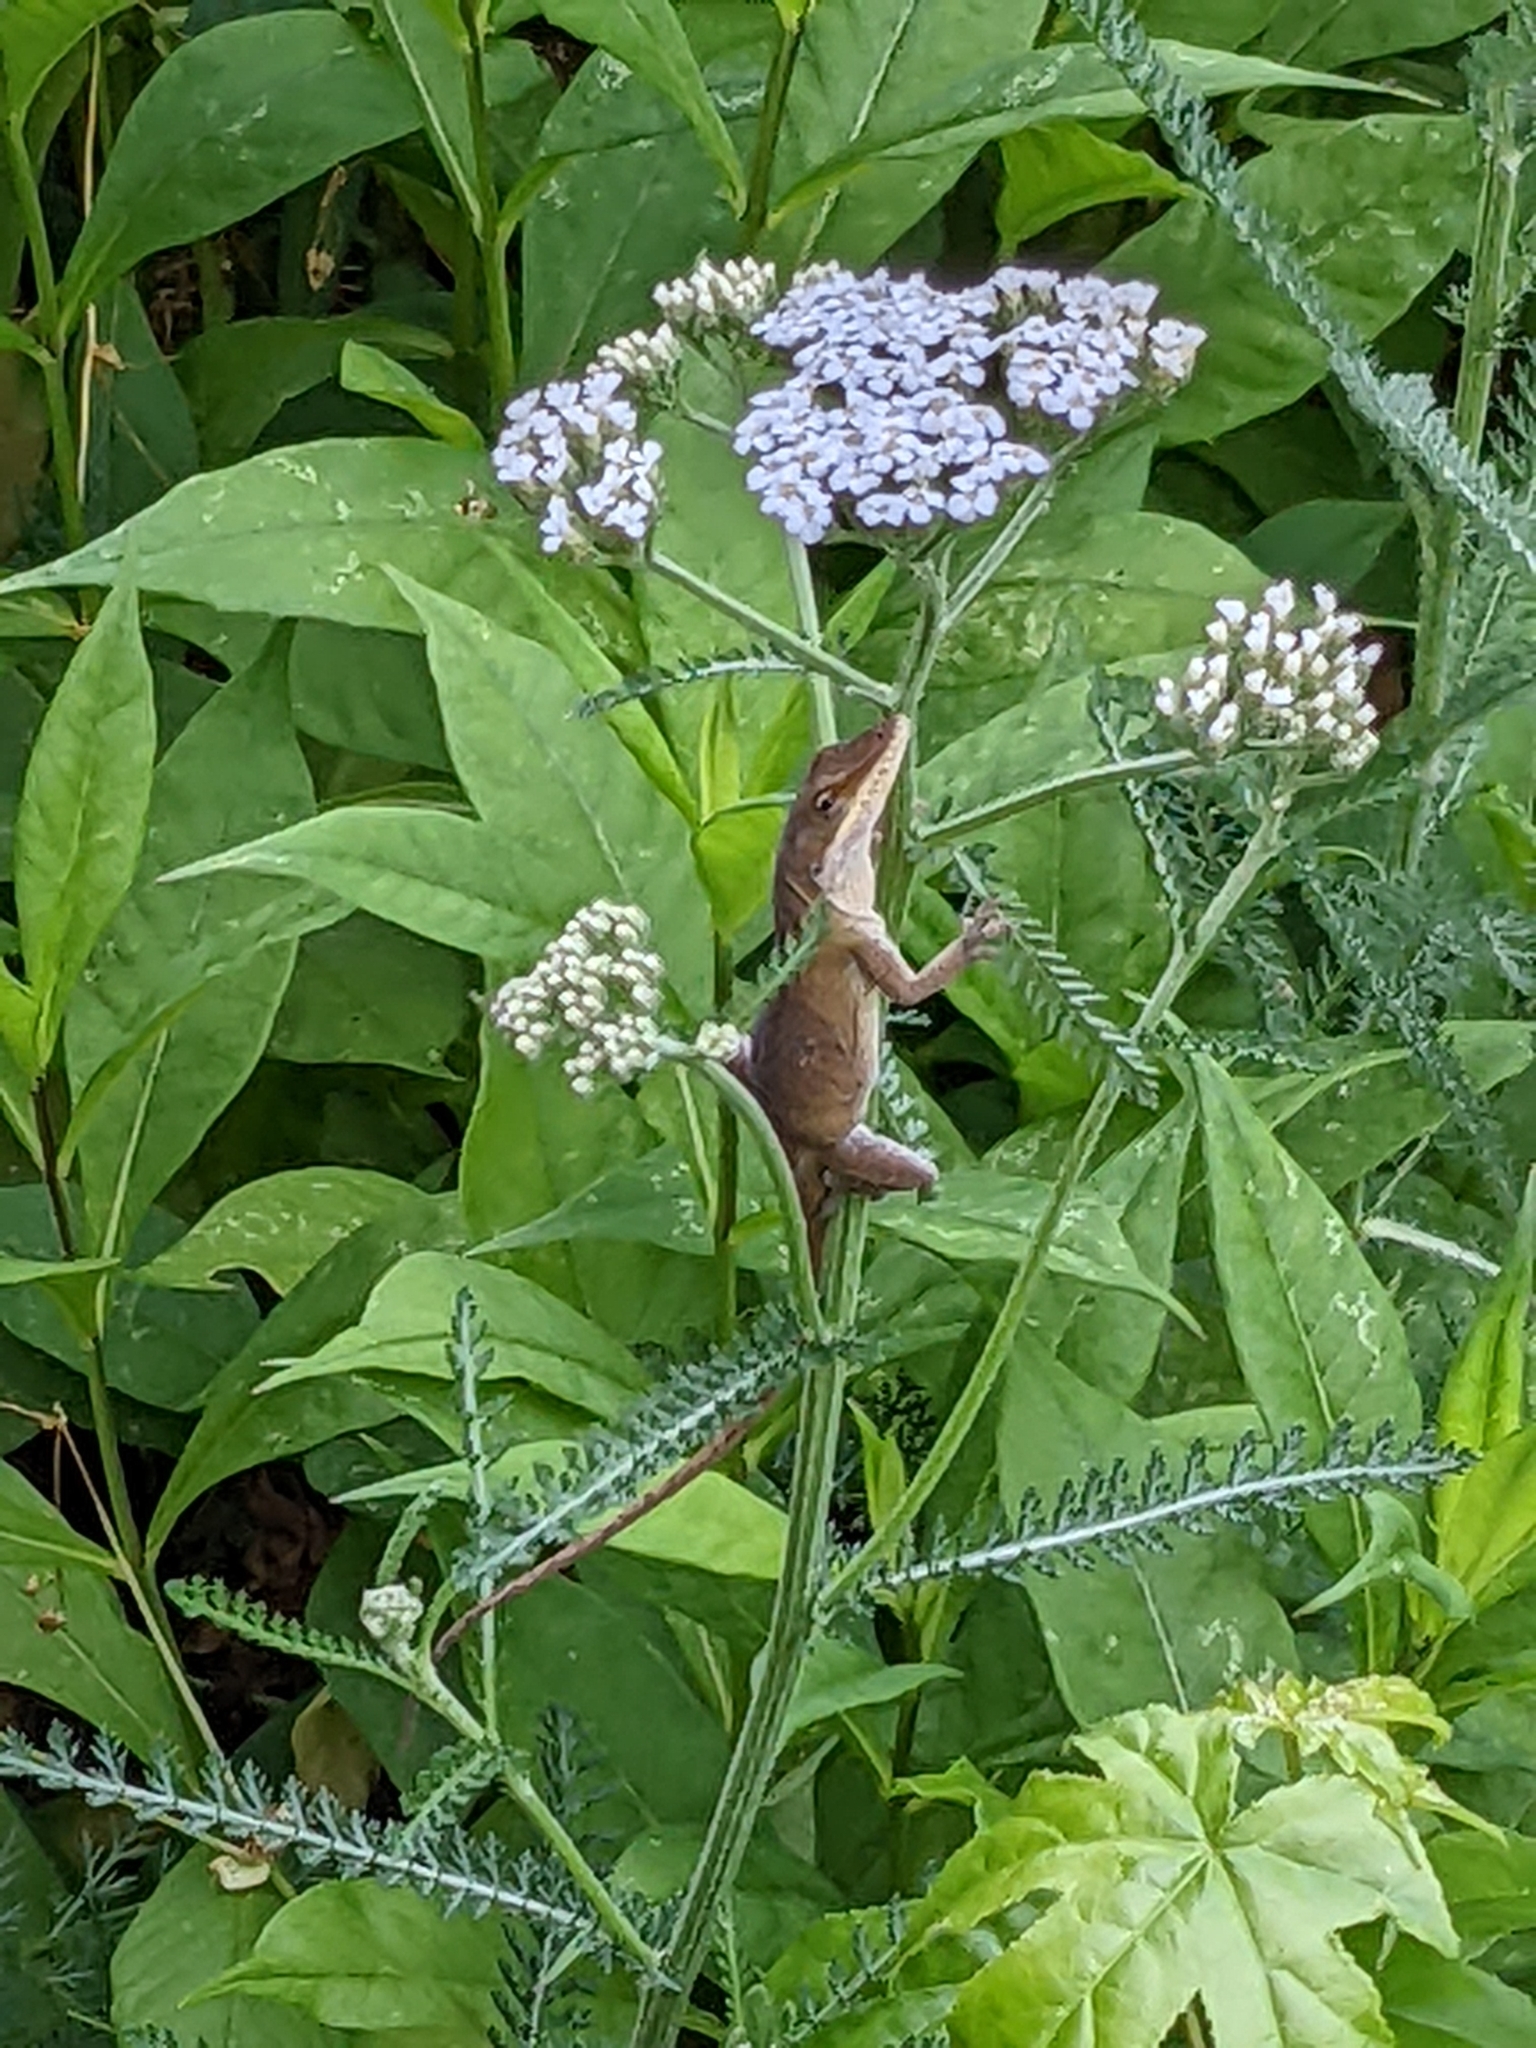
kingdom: Animalia
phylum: Chordata
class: Squamata
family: Dactyloidae
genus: Anolis
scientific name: Anolis carolinensis
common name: Green anole
